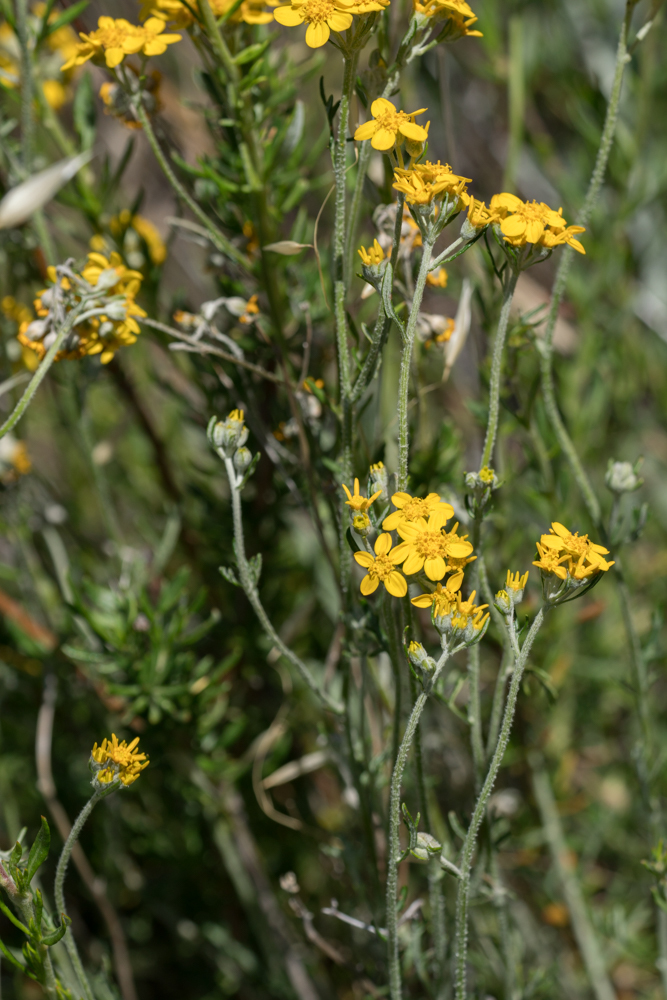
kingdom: Plantae
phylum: Tracheophyta
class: Magnoliopsida
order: Asterales
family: Asteraceae
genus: Eriophyllum
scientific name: Eriophyllum confertiflorum
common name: Golden-yarrow
